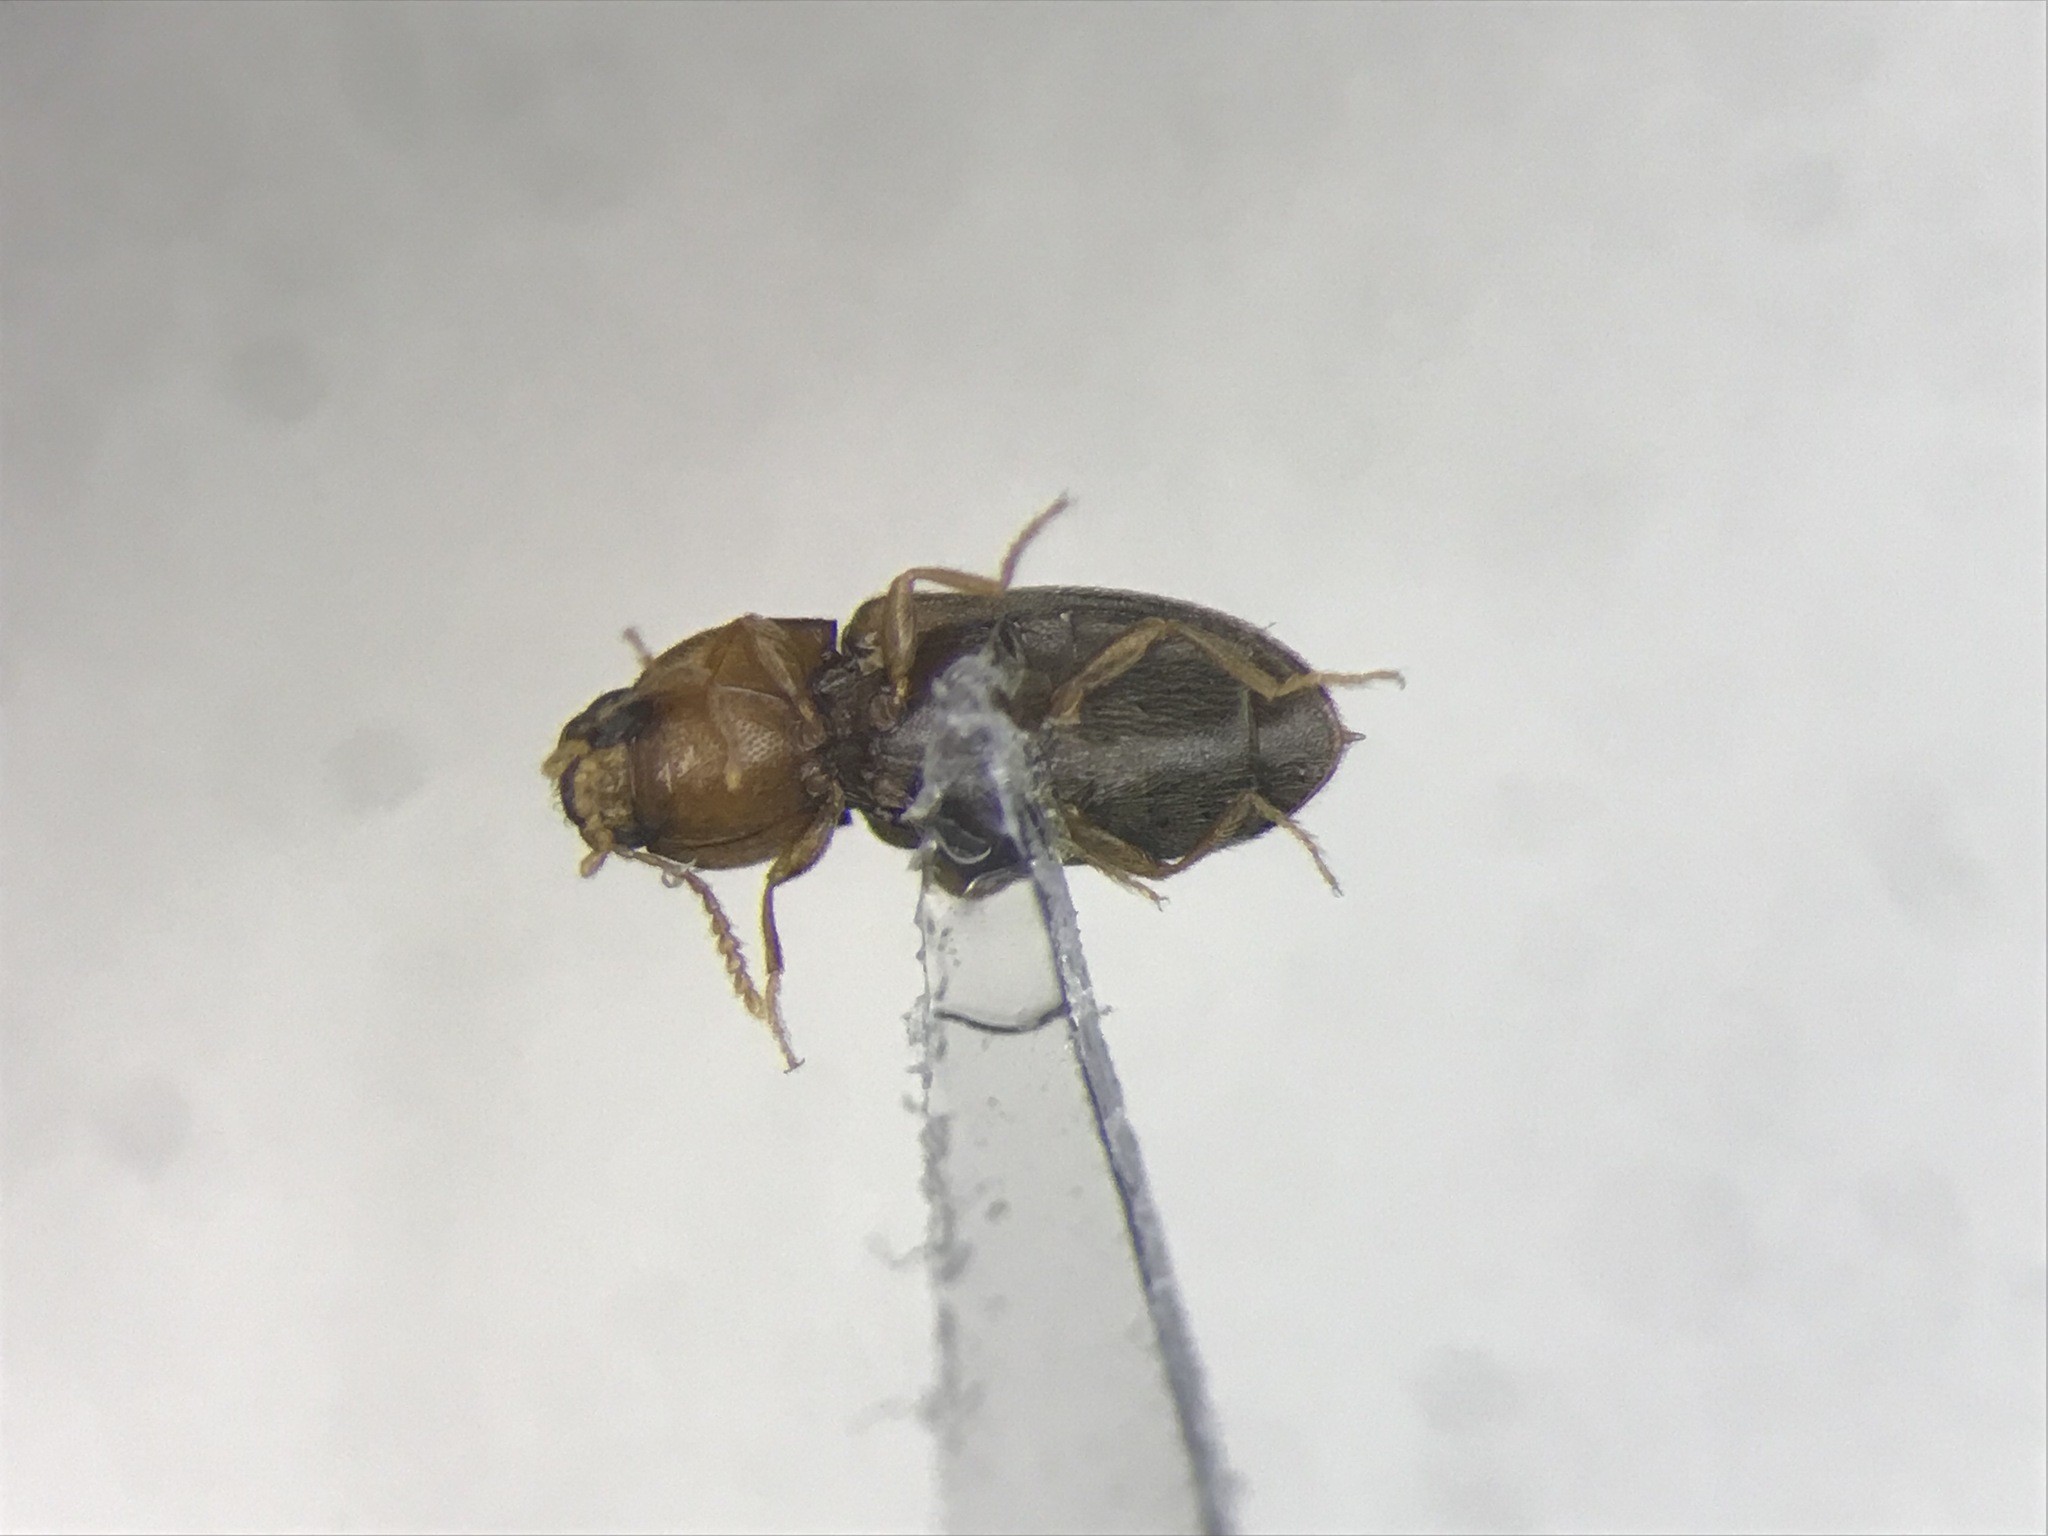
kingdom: Animalia
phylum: Arthropoda
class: Insecta
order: Coleoptera
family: Elateridae
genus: Paradonus
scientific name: Paradonus
